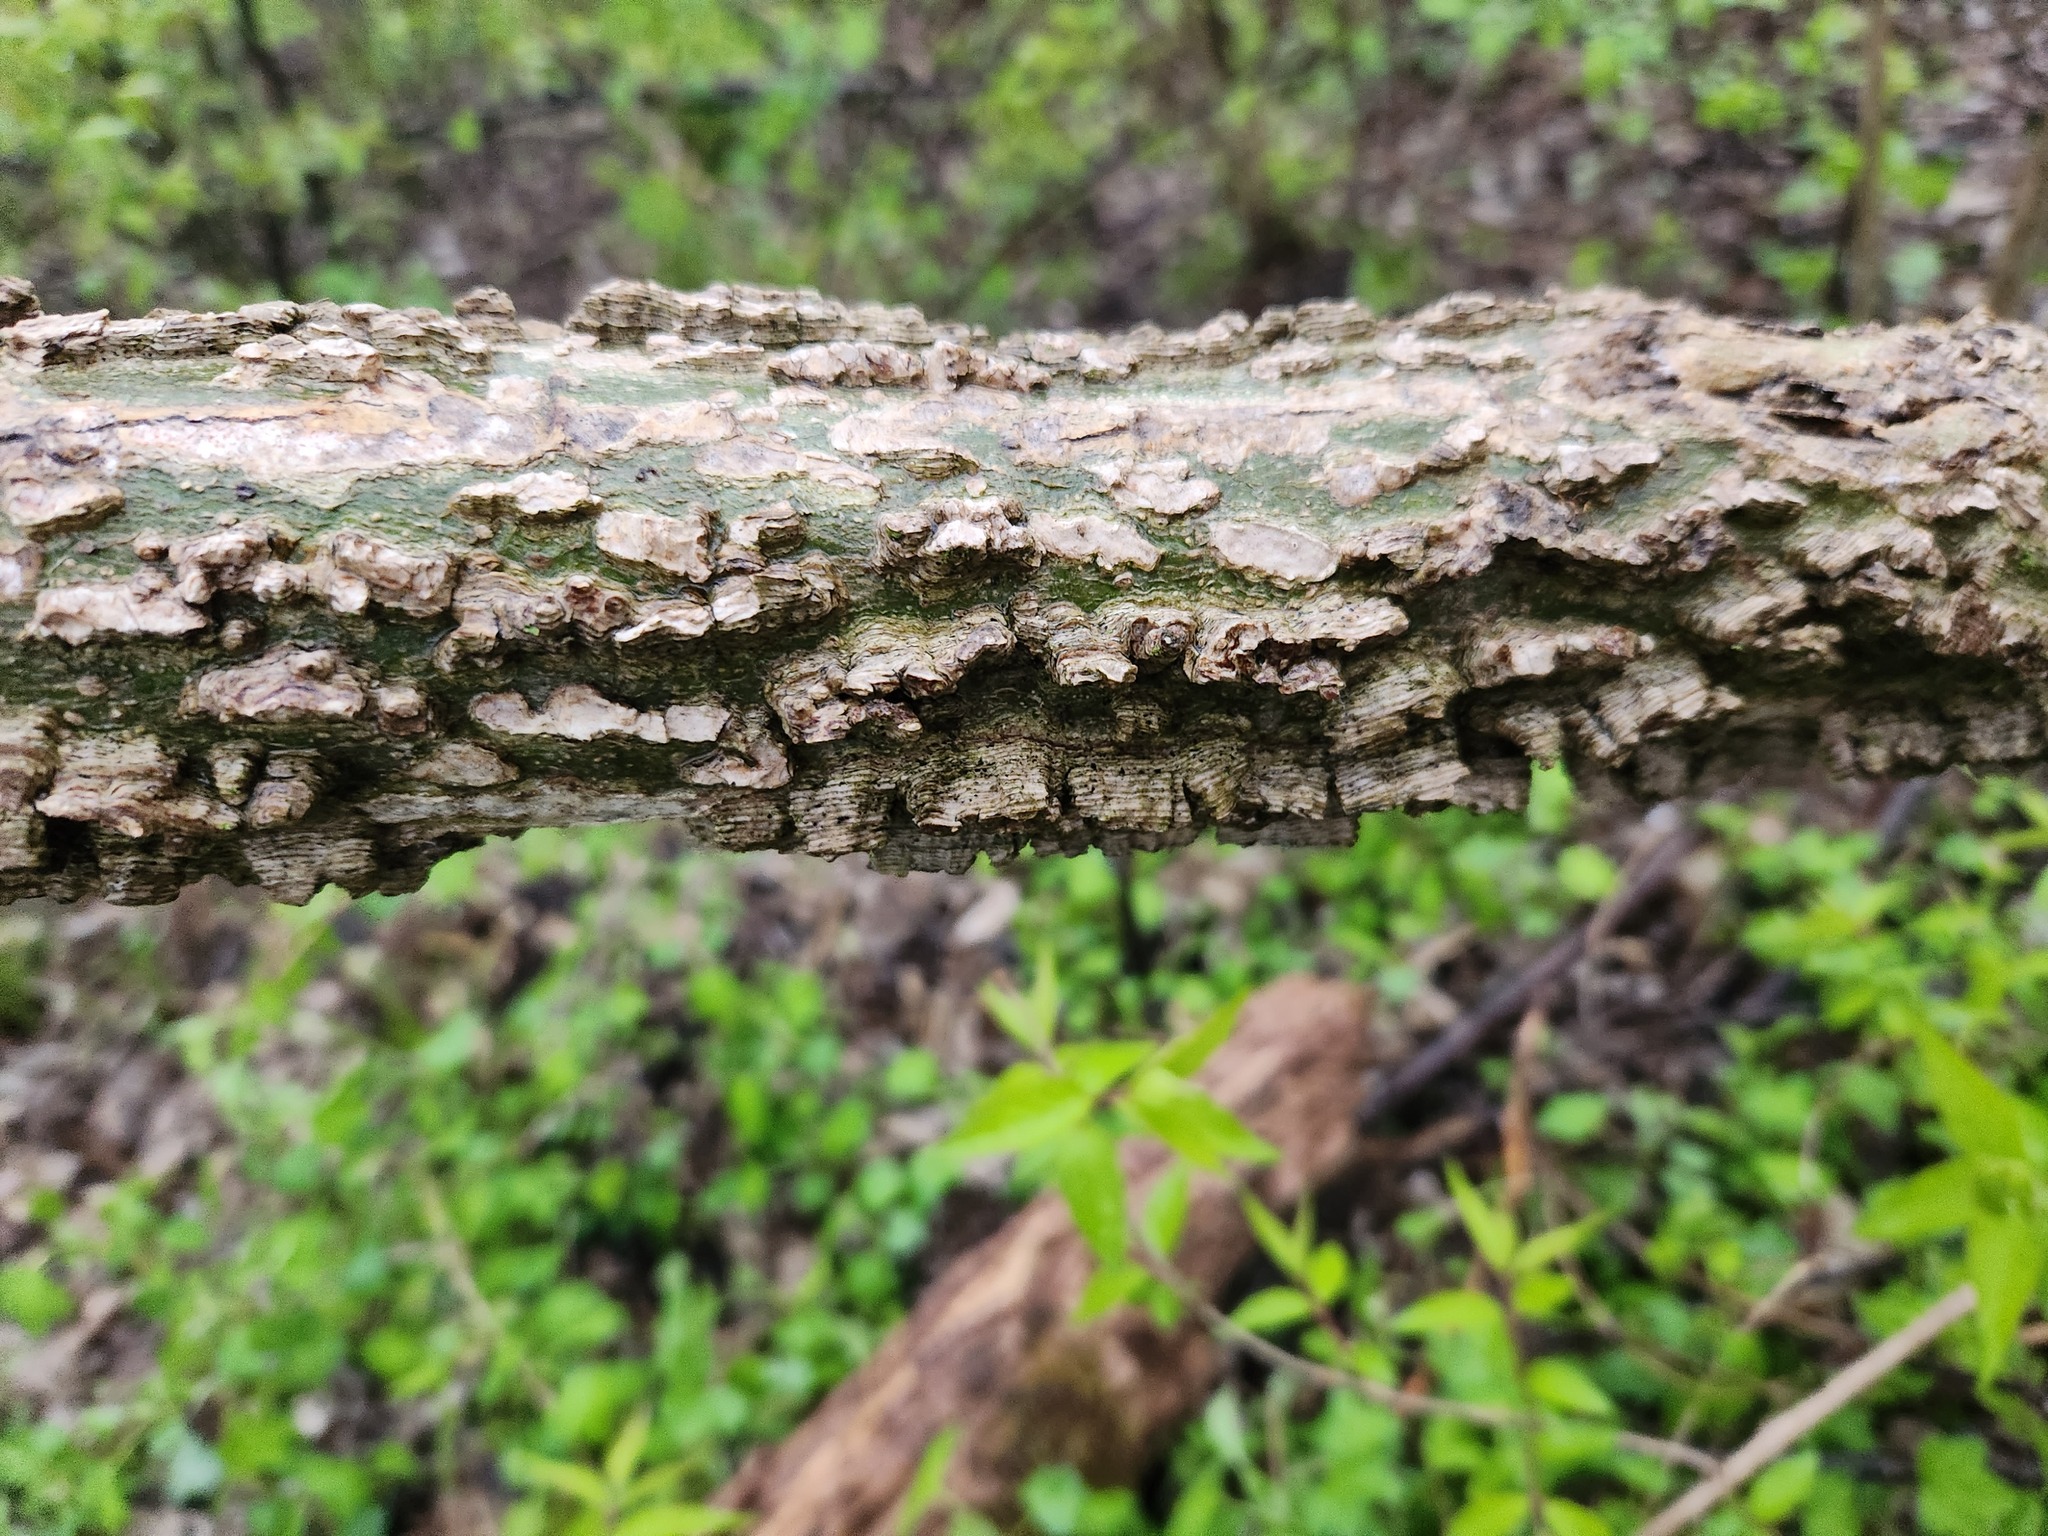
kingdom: Plantae
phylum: Tracheophyta
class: Magnoliopsida
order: Rosales
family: Cannabaceae
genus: Celtis
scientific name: Celtis occidentalis
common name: Common hackberry
